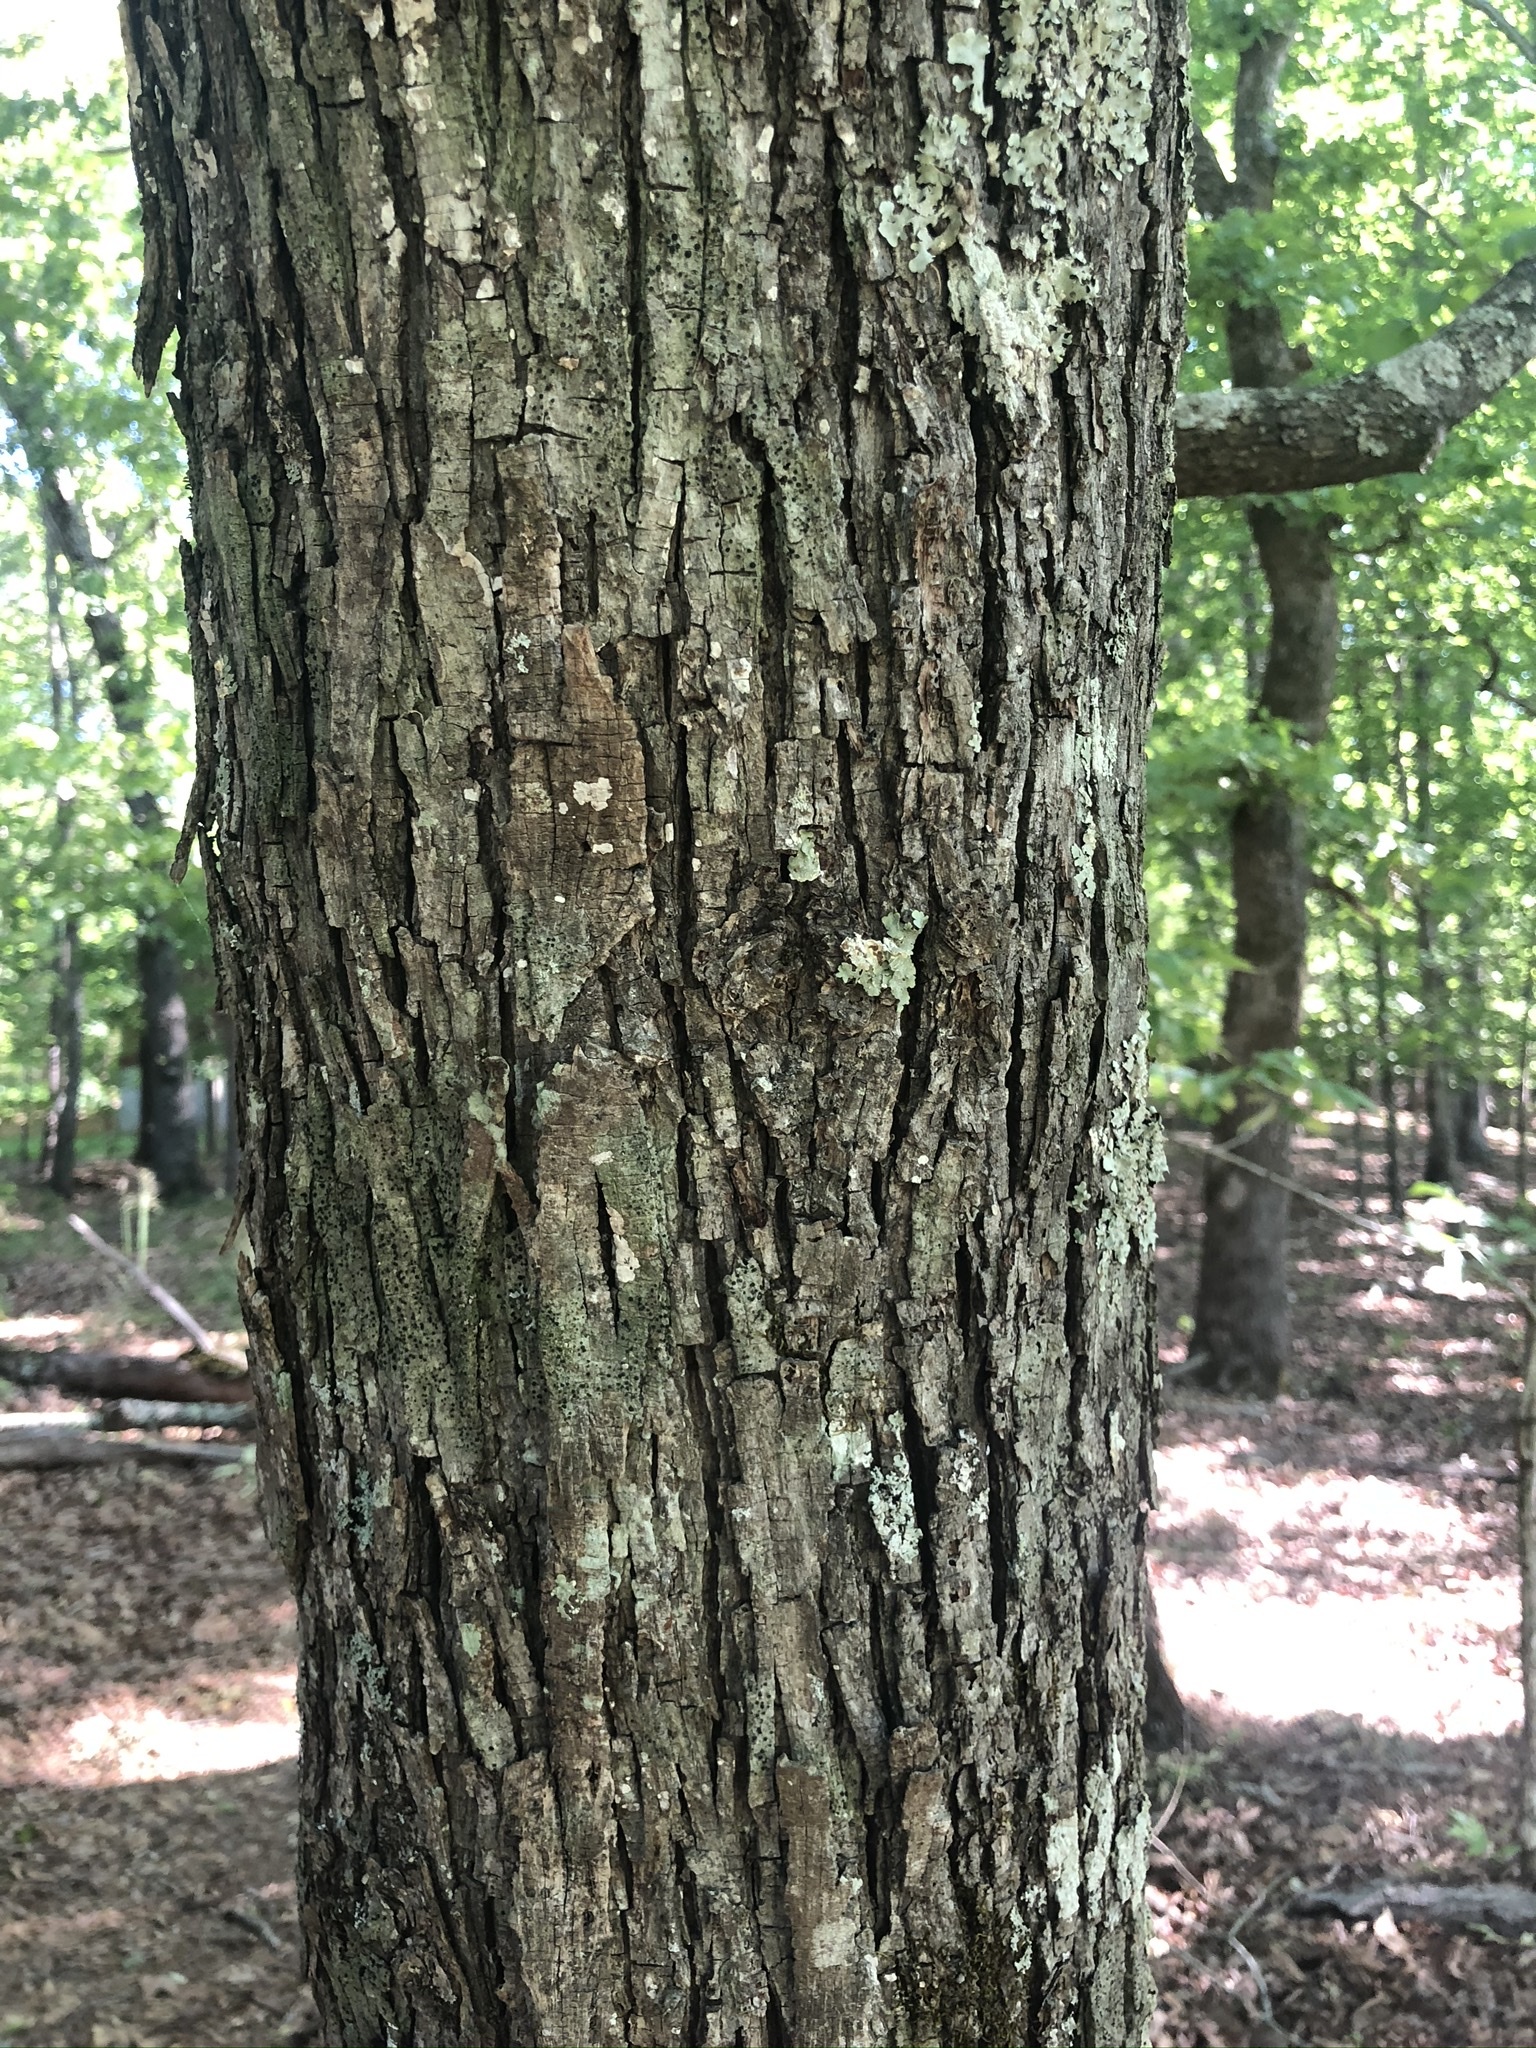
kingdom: Plantae
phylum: Tracheophyta
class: Magnoliopsida
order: Fagales
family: Juglandaceae
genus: Carya
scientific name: Carya glabra
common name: Pignut hickory
